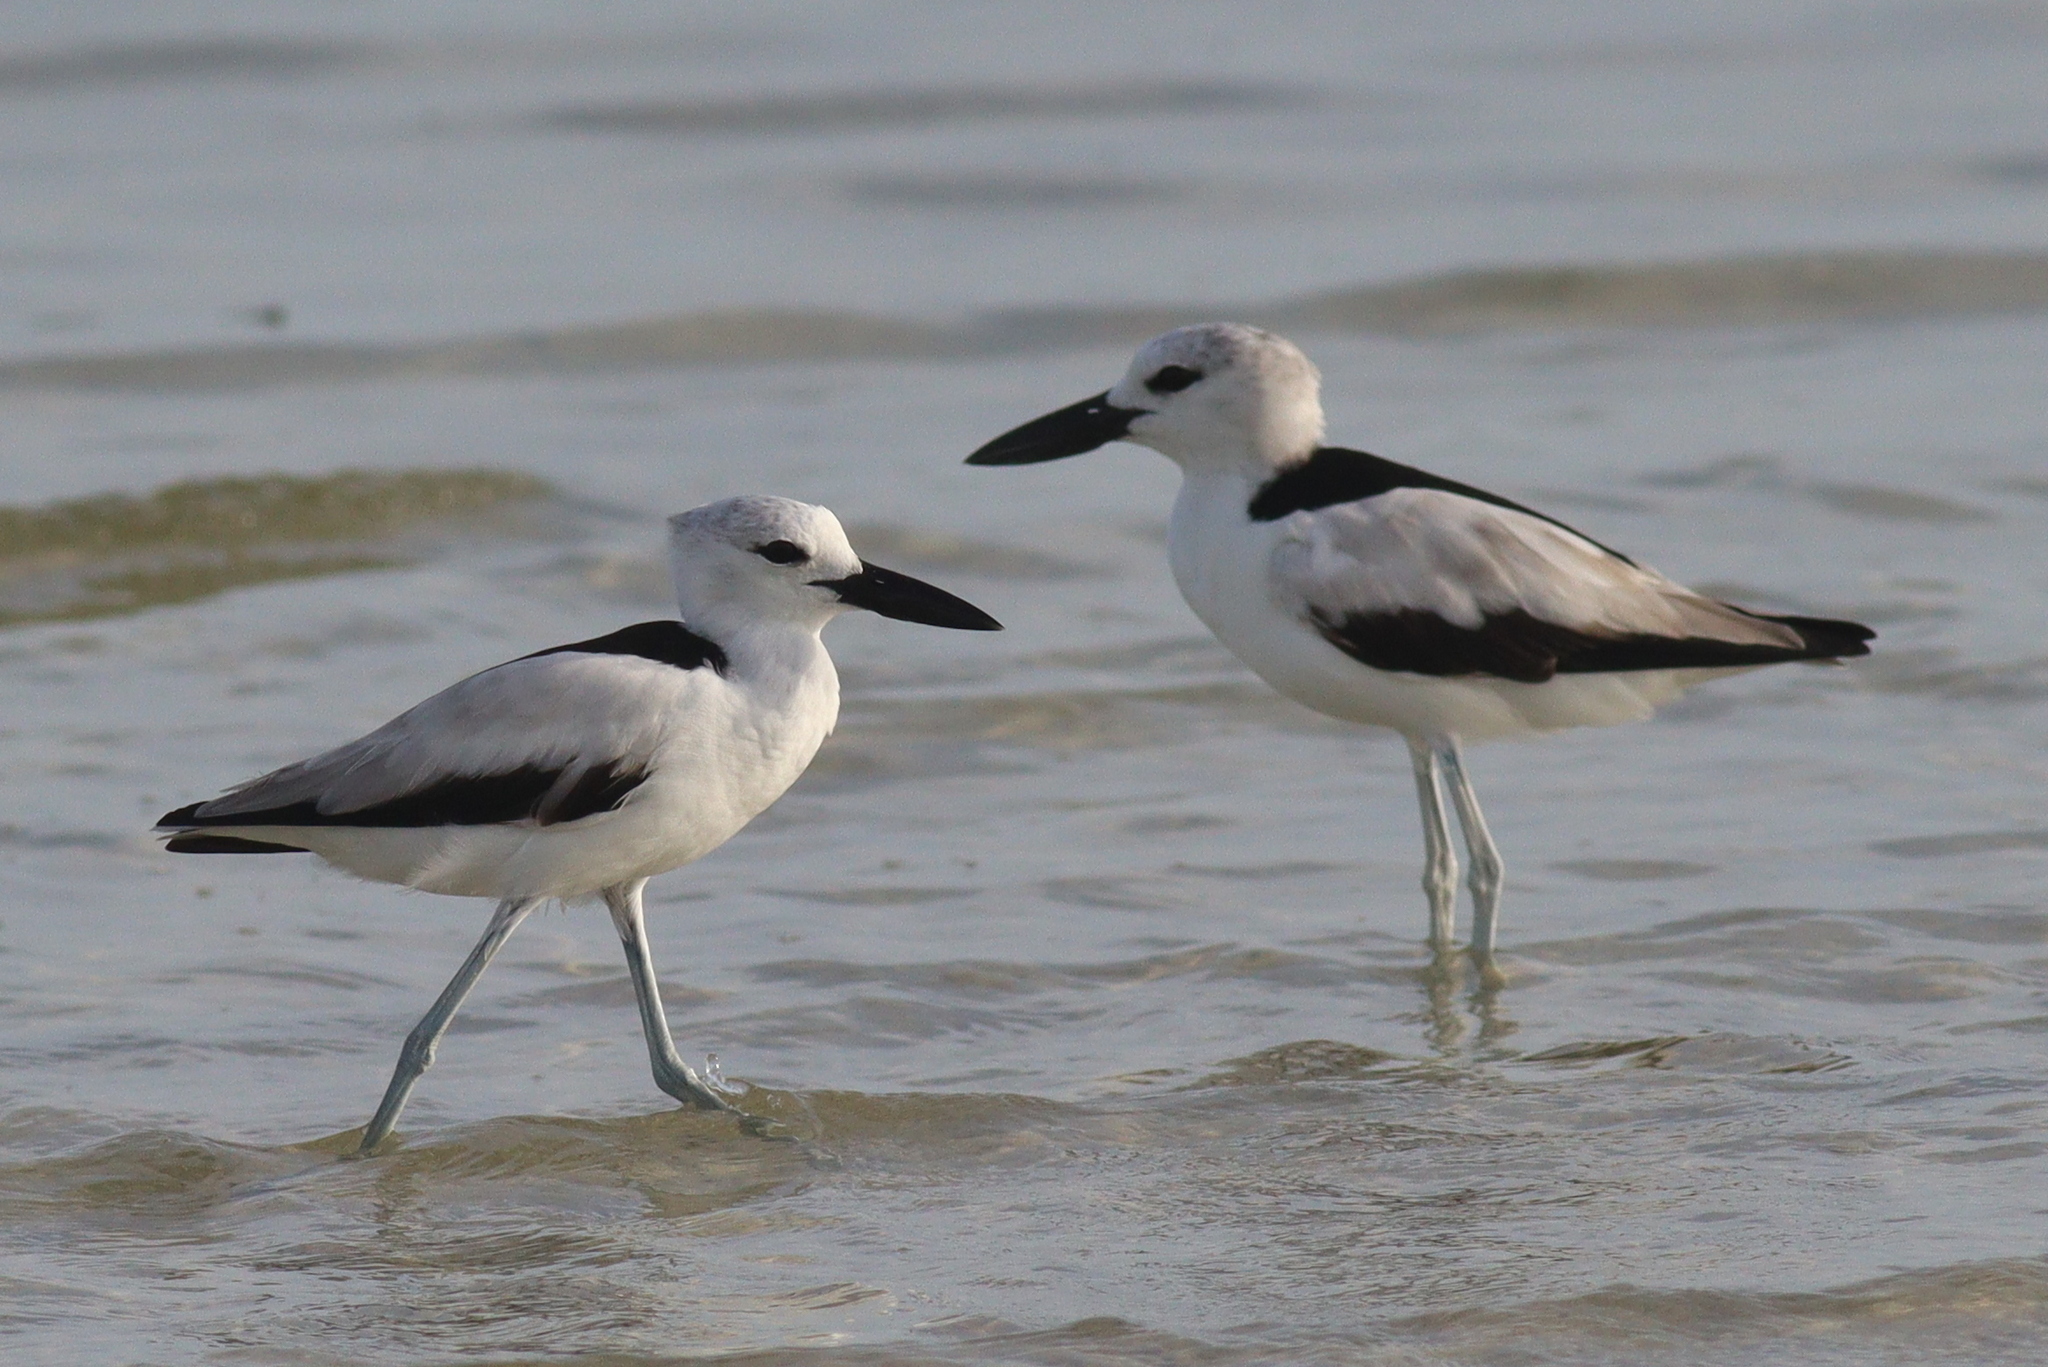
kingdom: Animalia
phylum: Chordata
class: Aves
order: Charadriiformes
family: Dromadidae
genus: Dromas
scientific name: Dromas ardeola
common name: Crab-plover
